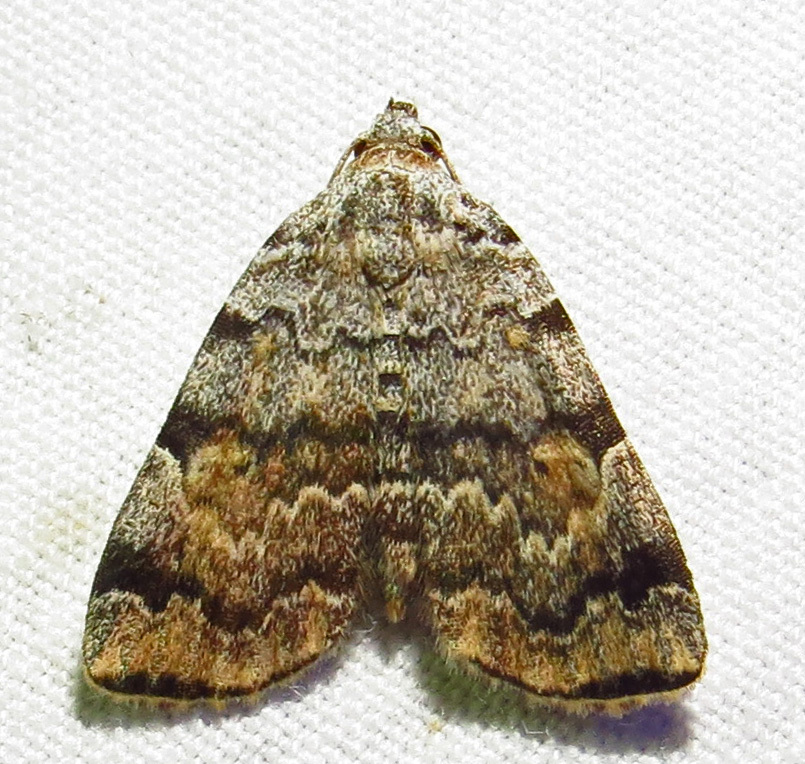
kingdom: Animalia
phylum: Arthropoda
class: Insecta
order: Lepidoptera
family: Erebidae
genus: Idia
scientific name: Idia americalis
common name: American idia moth
